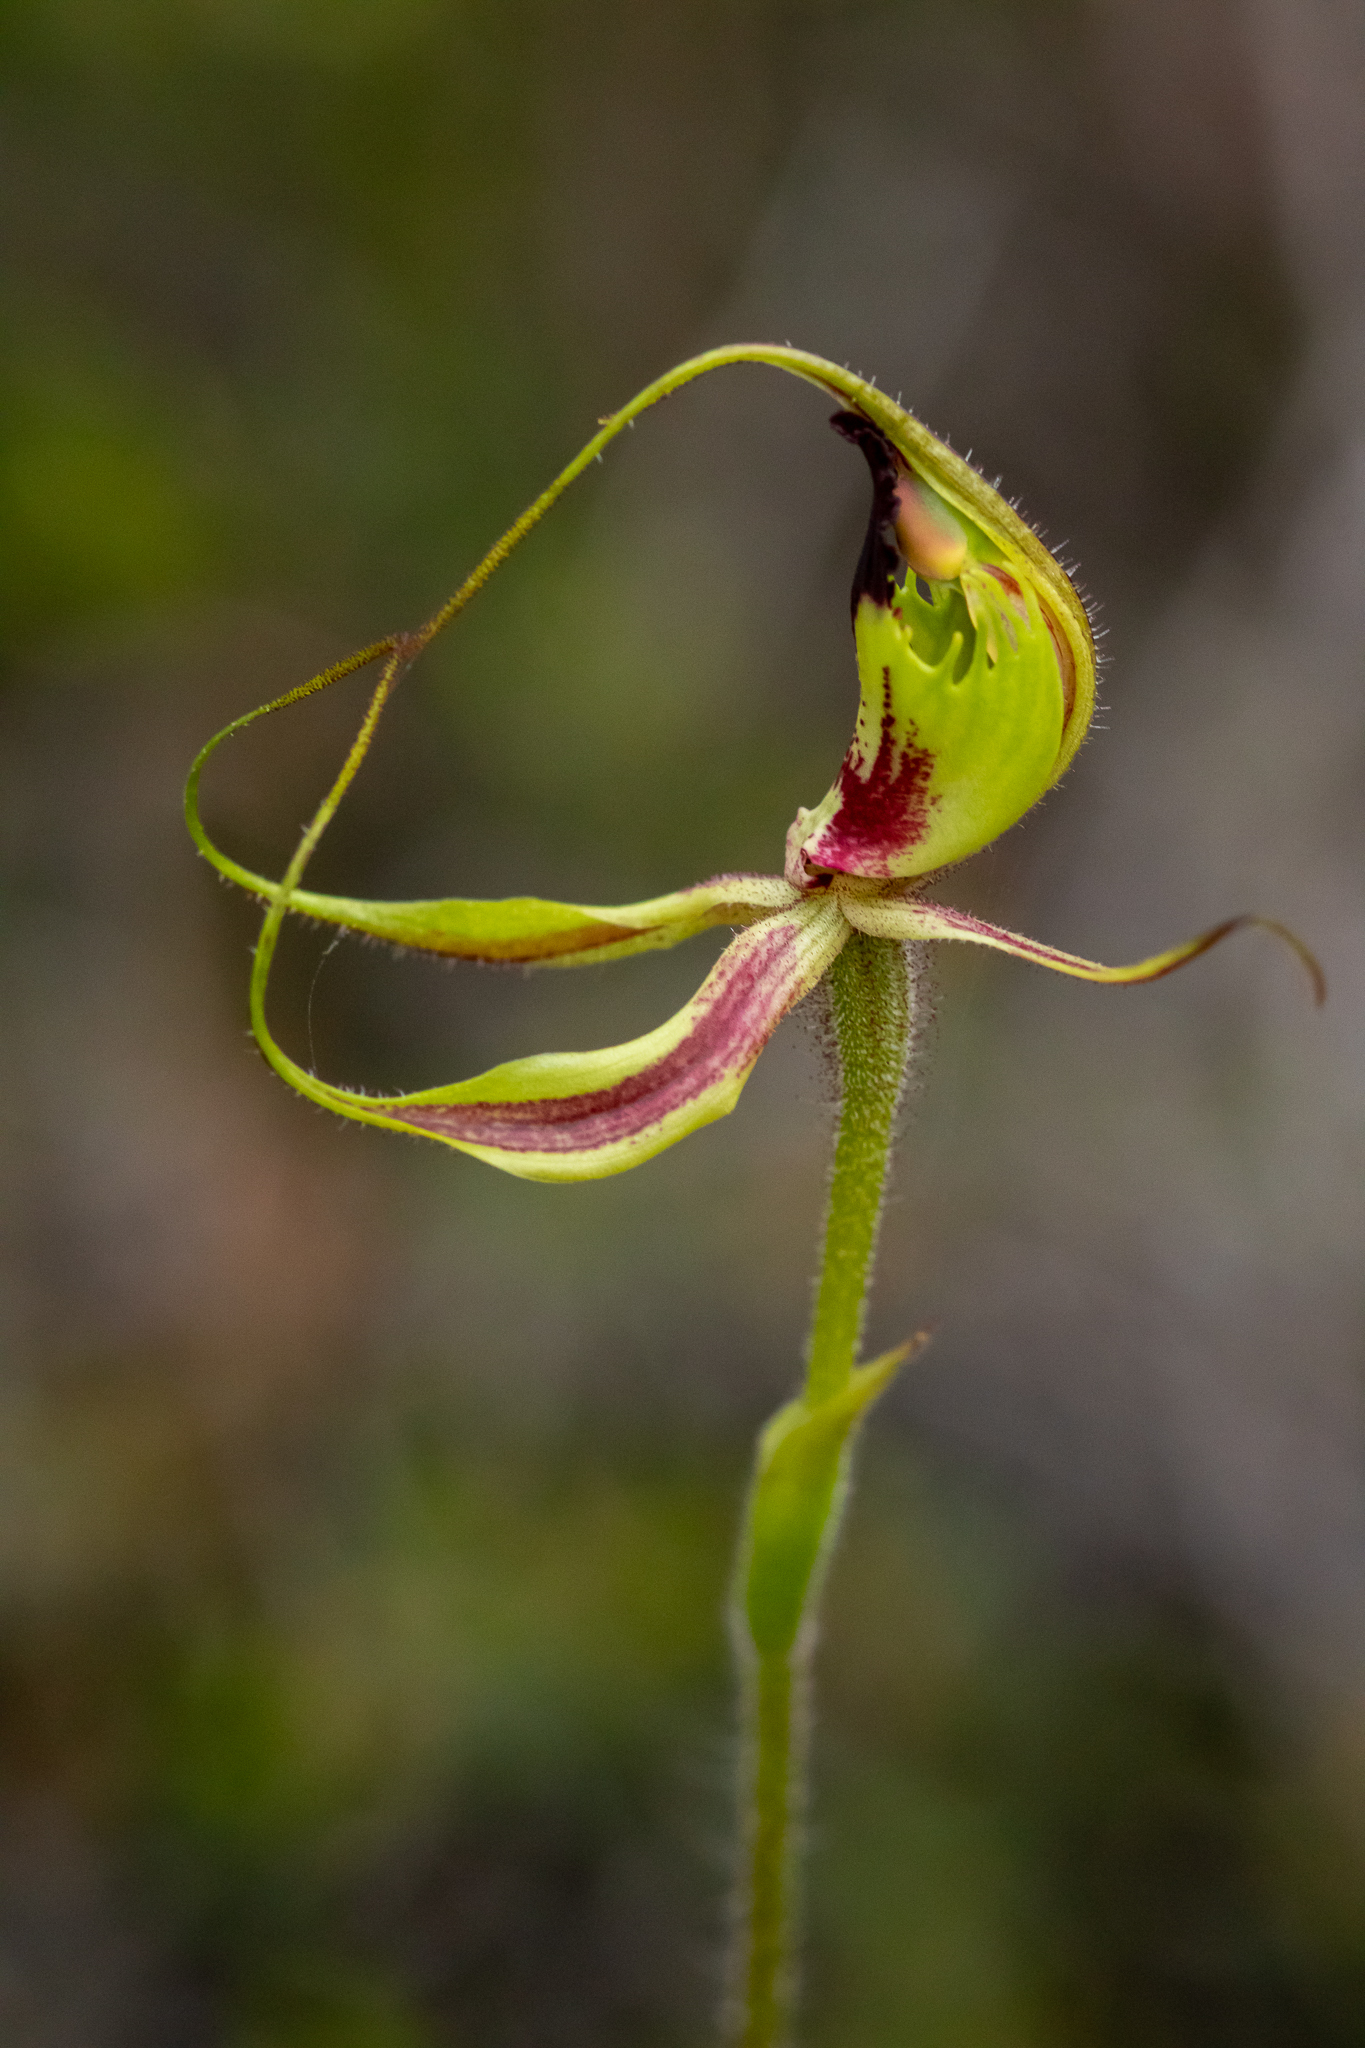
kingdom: Plantae
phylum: Tracheophyta
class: Liliopsida
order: Asparagales
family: Orchidaceae
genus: Caladenia
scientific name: Caladenia attingens
